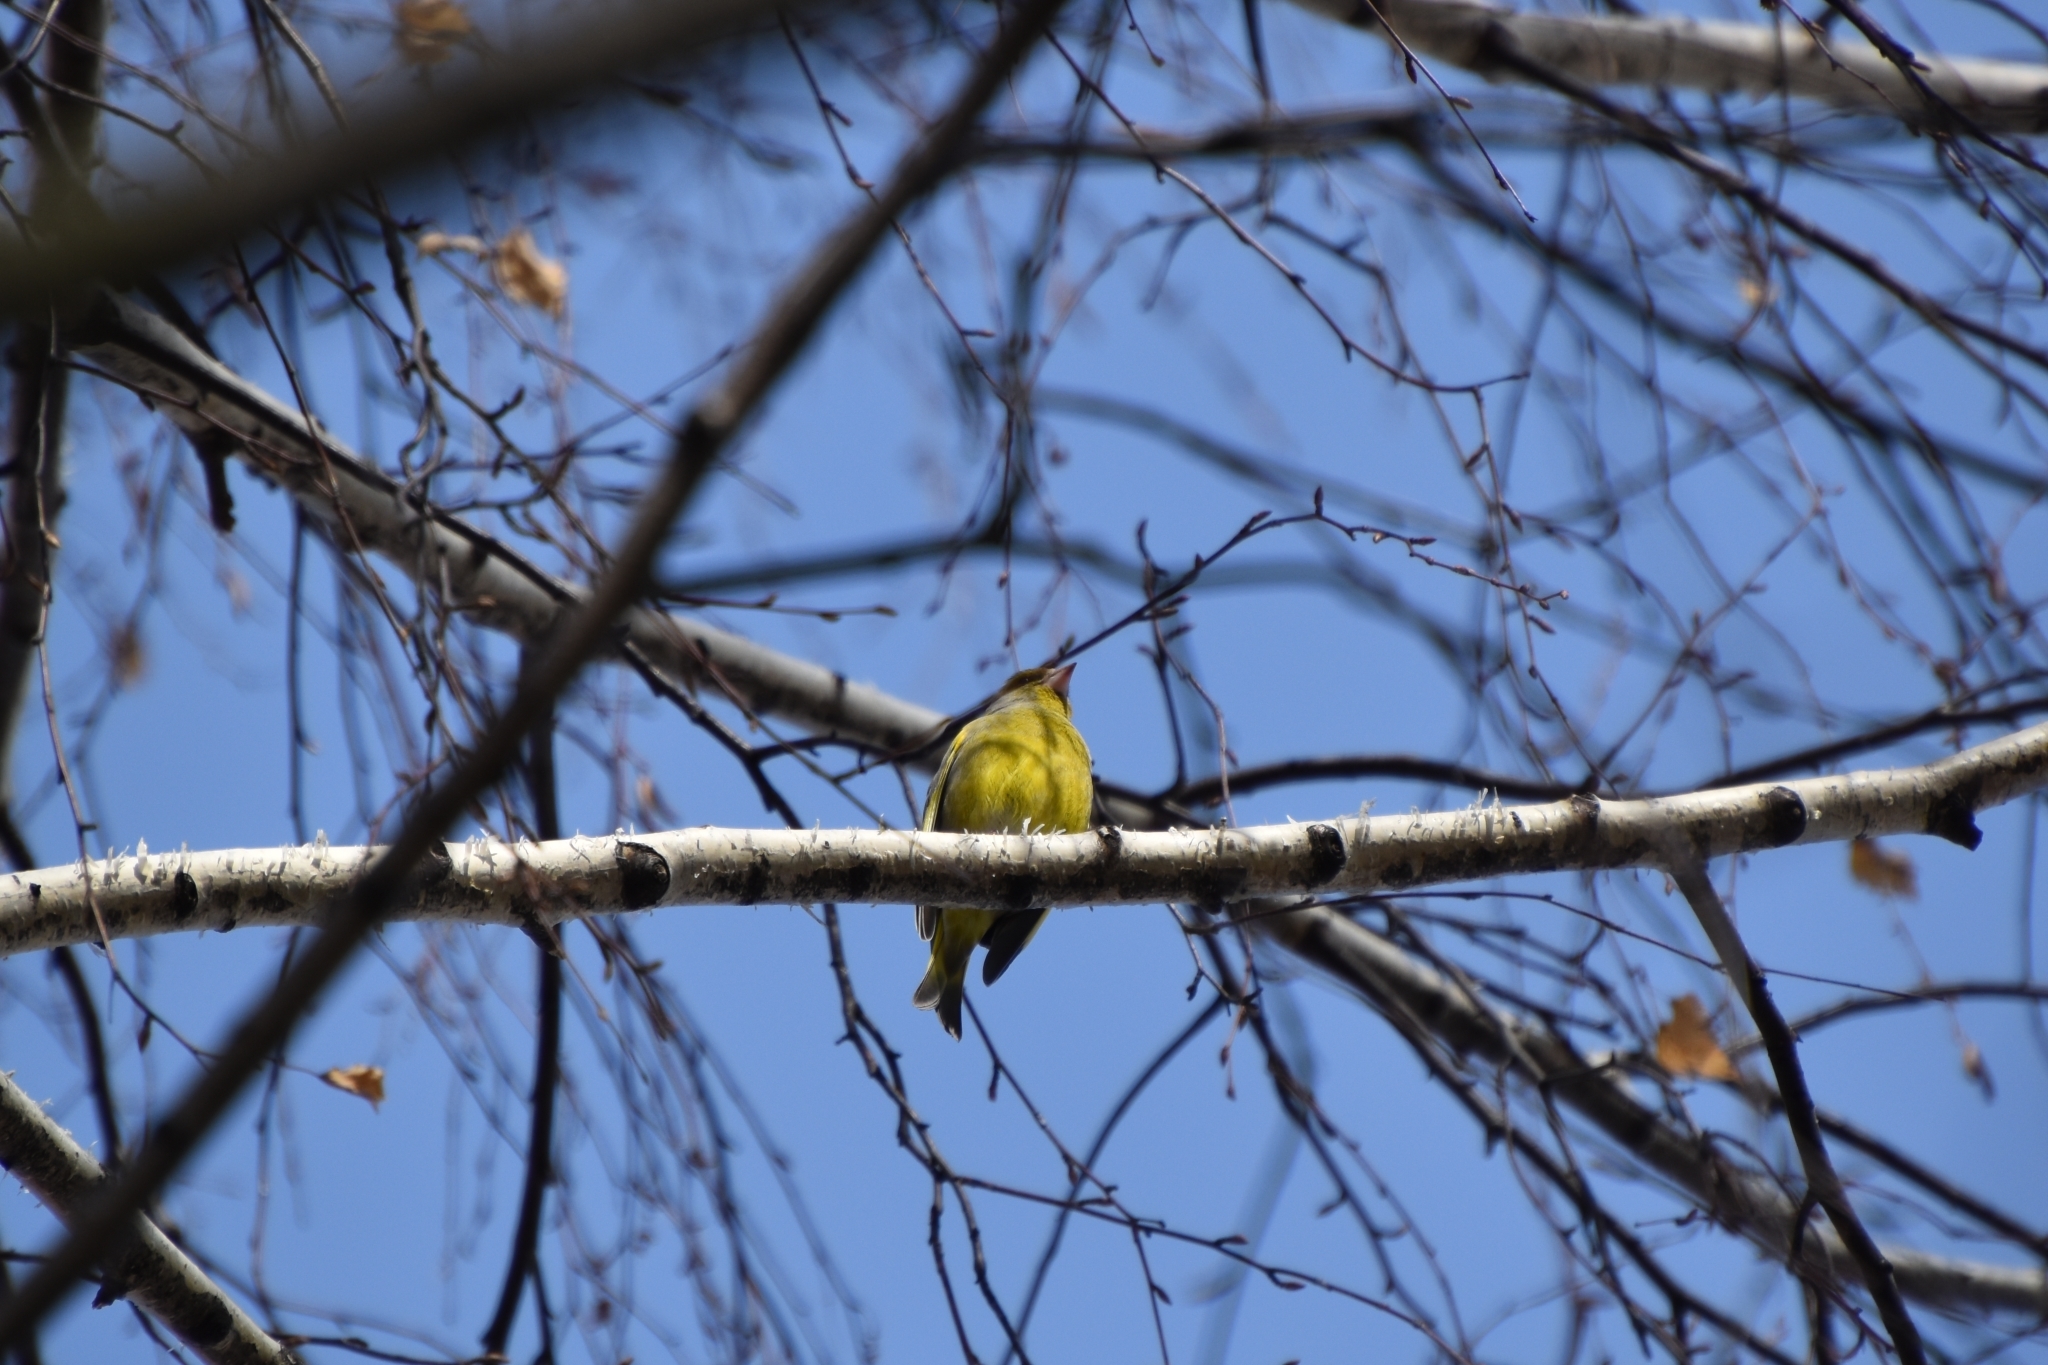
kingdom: Plantae
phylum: Tracheophyta
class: Liliopsida
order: Poales
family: Poaceae
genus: Chloris
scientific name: Chloris chloris
